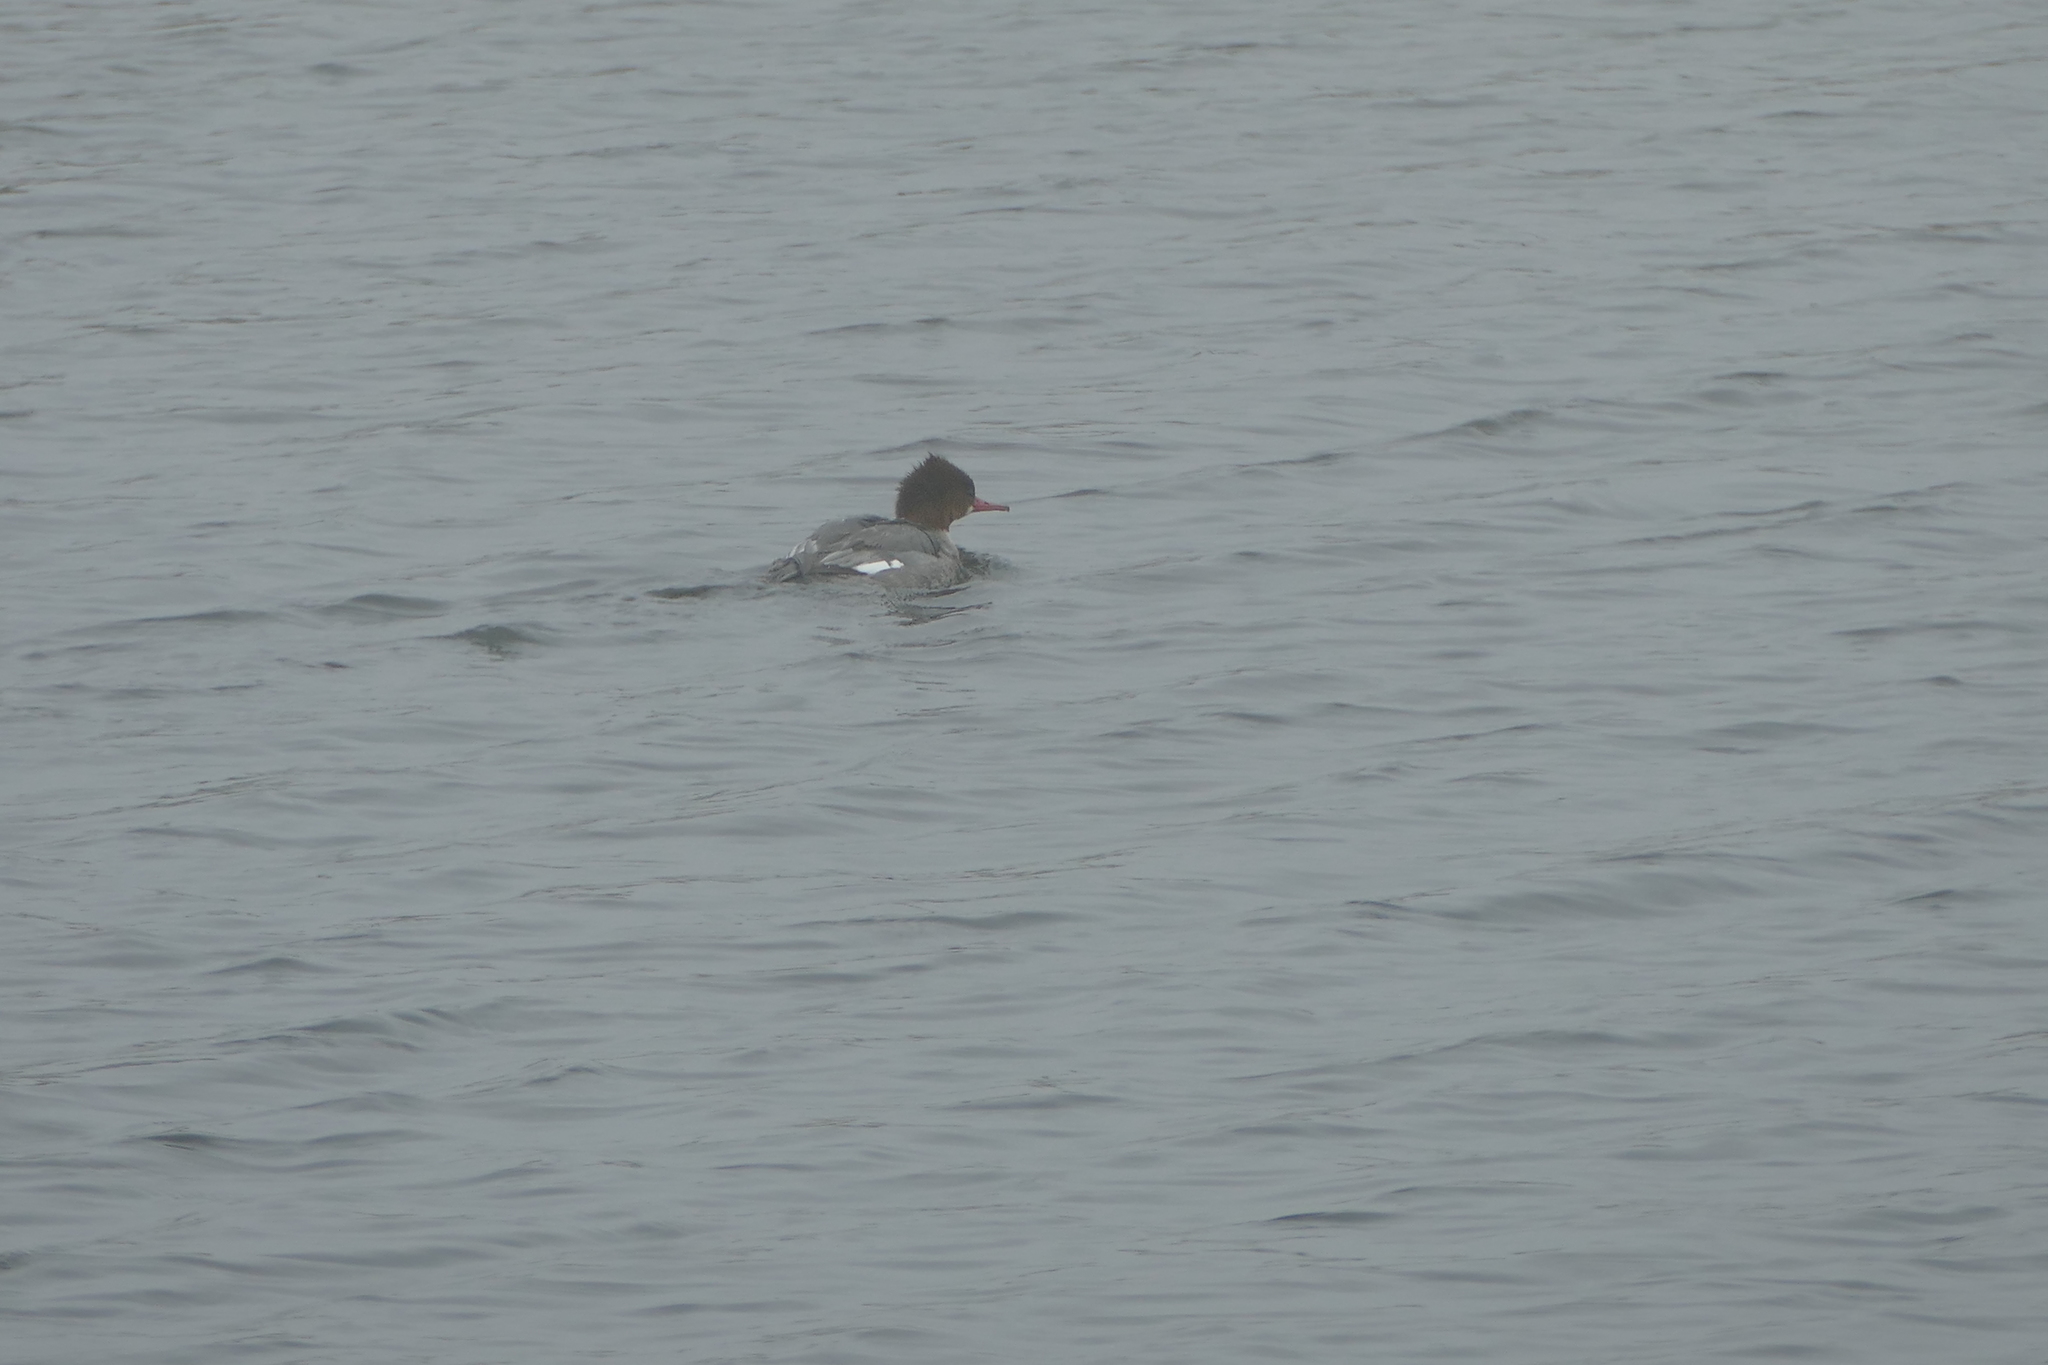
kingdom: Animalia
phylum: Chordata
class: Aves
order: Anseriformes
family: Anatidae
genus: Mergus
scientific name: Mergus serrator
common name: Red-breasted merganser
